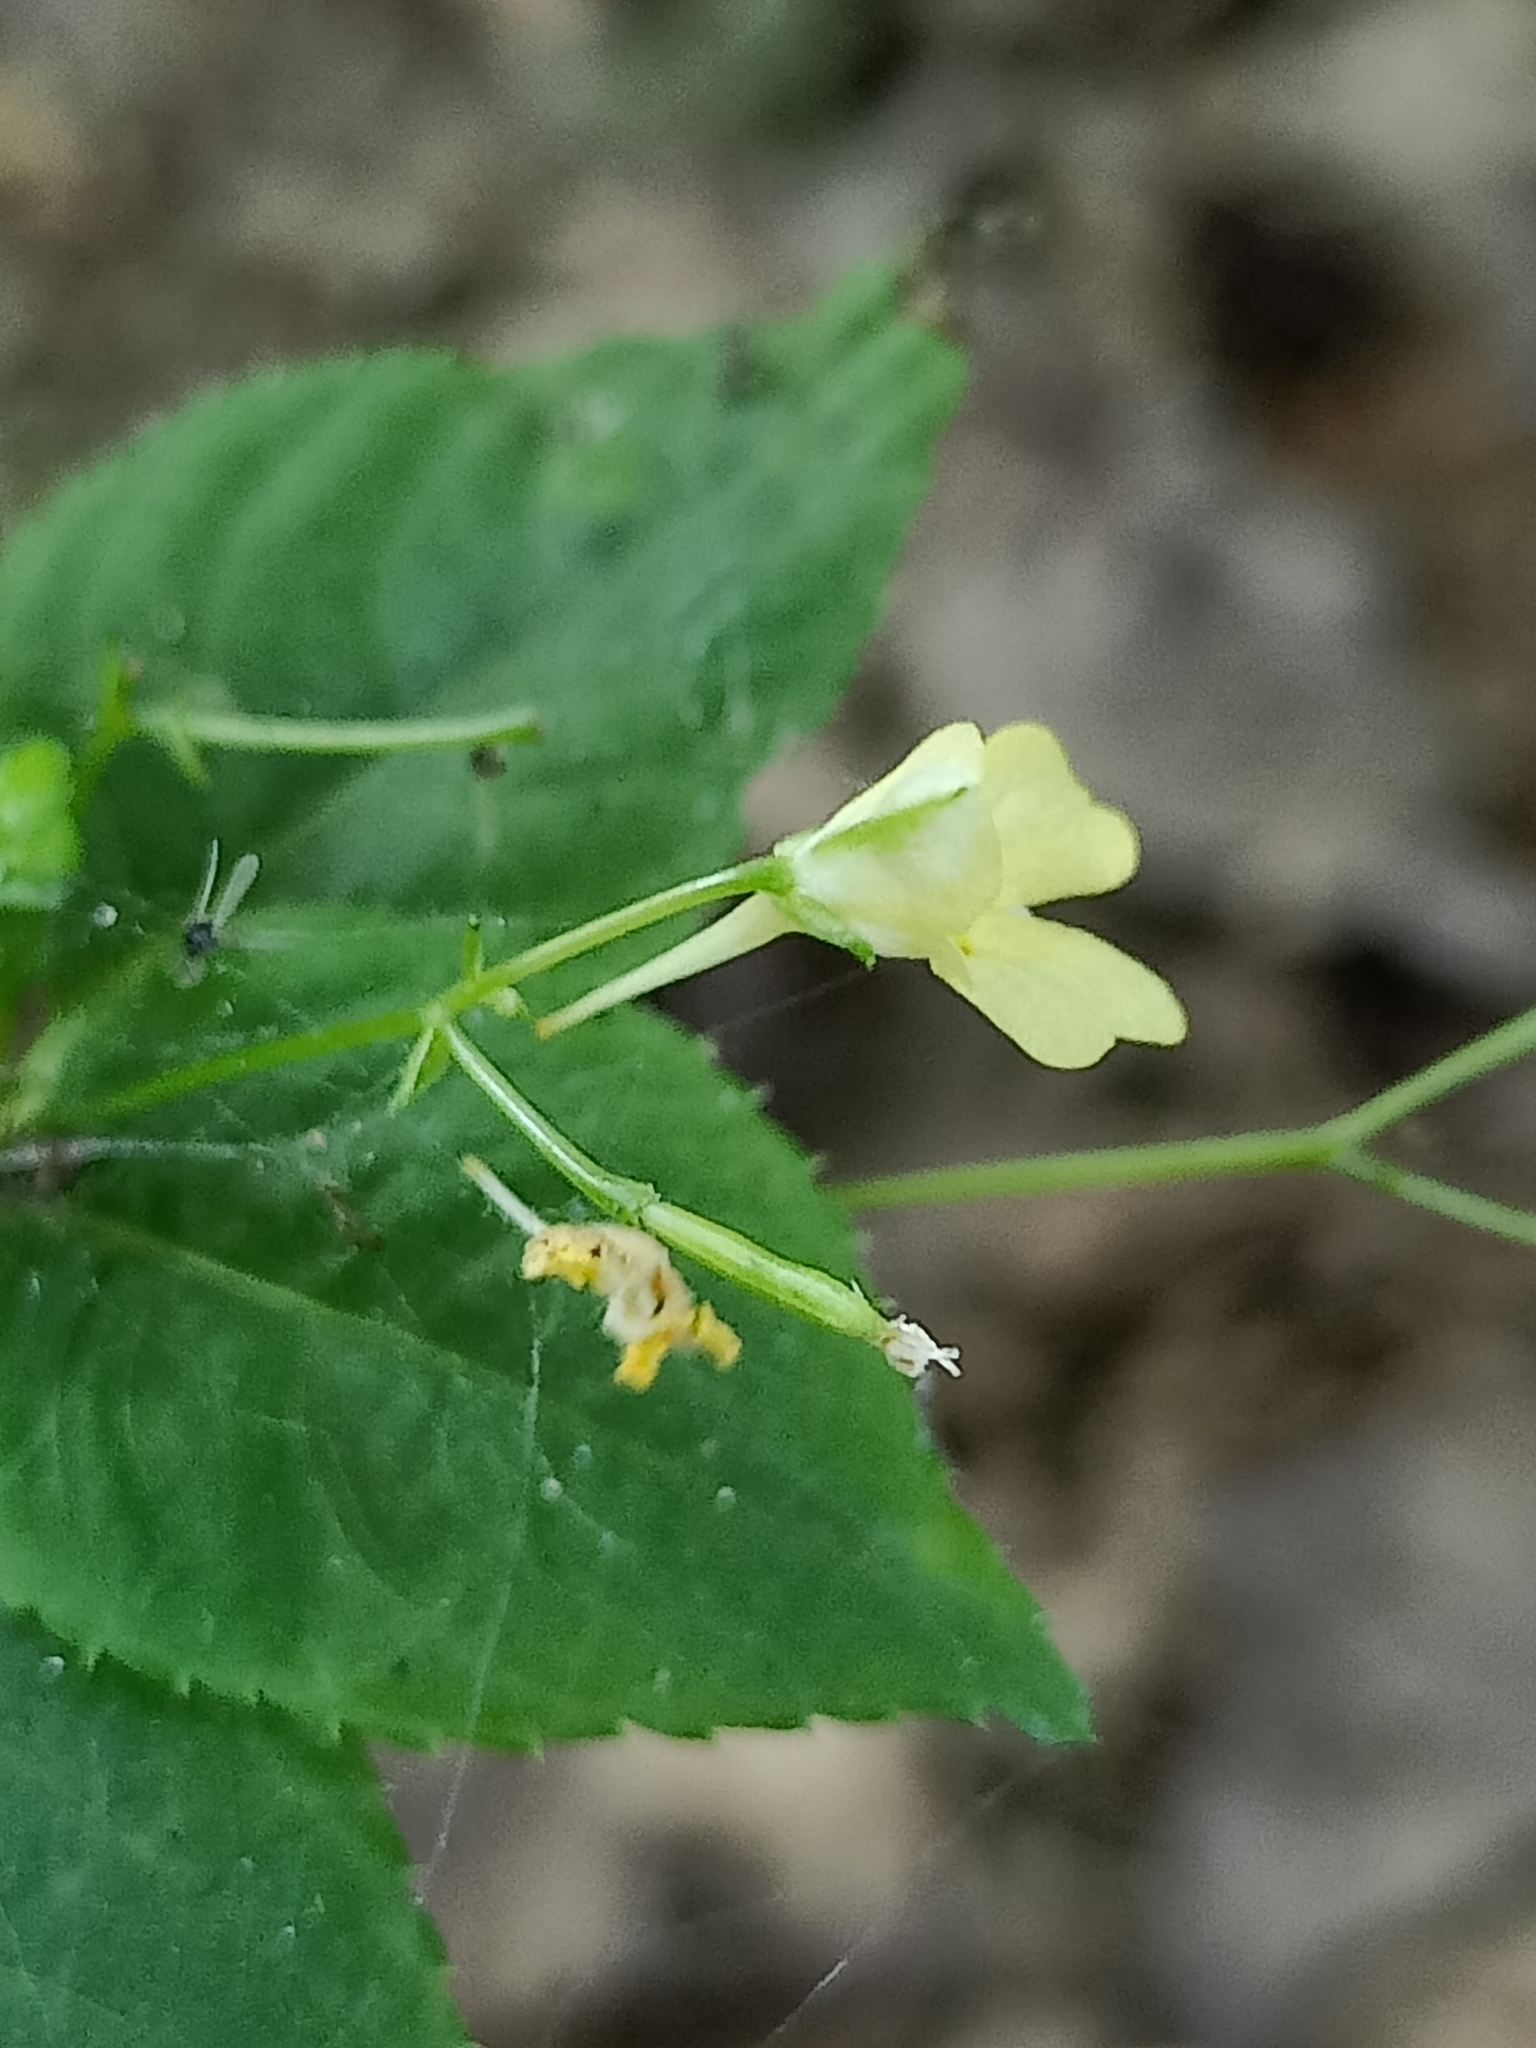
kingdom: Plantae
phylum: Tracheophyta
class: Magnoliopsida
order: Ericales
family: Balsaminaceae
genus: Impatiens
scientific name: Impatiens parviflora
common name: Small balsam
